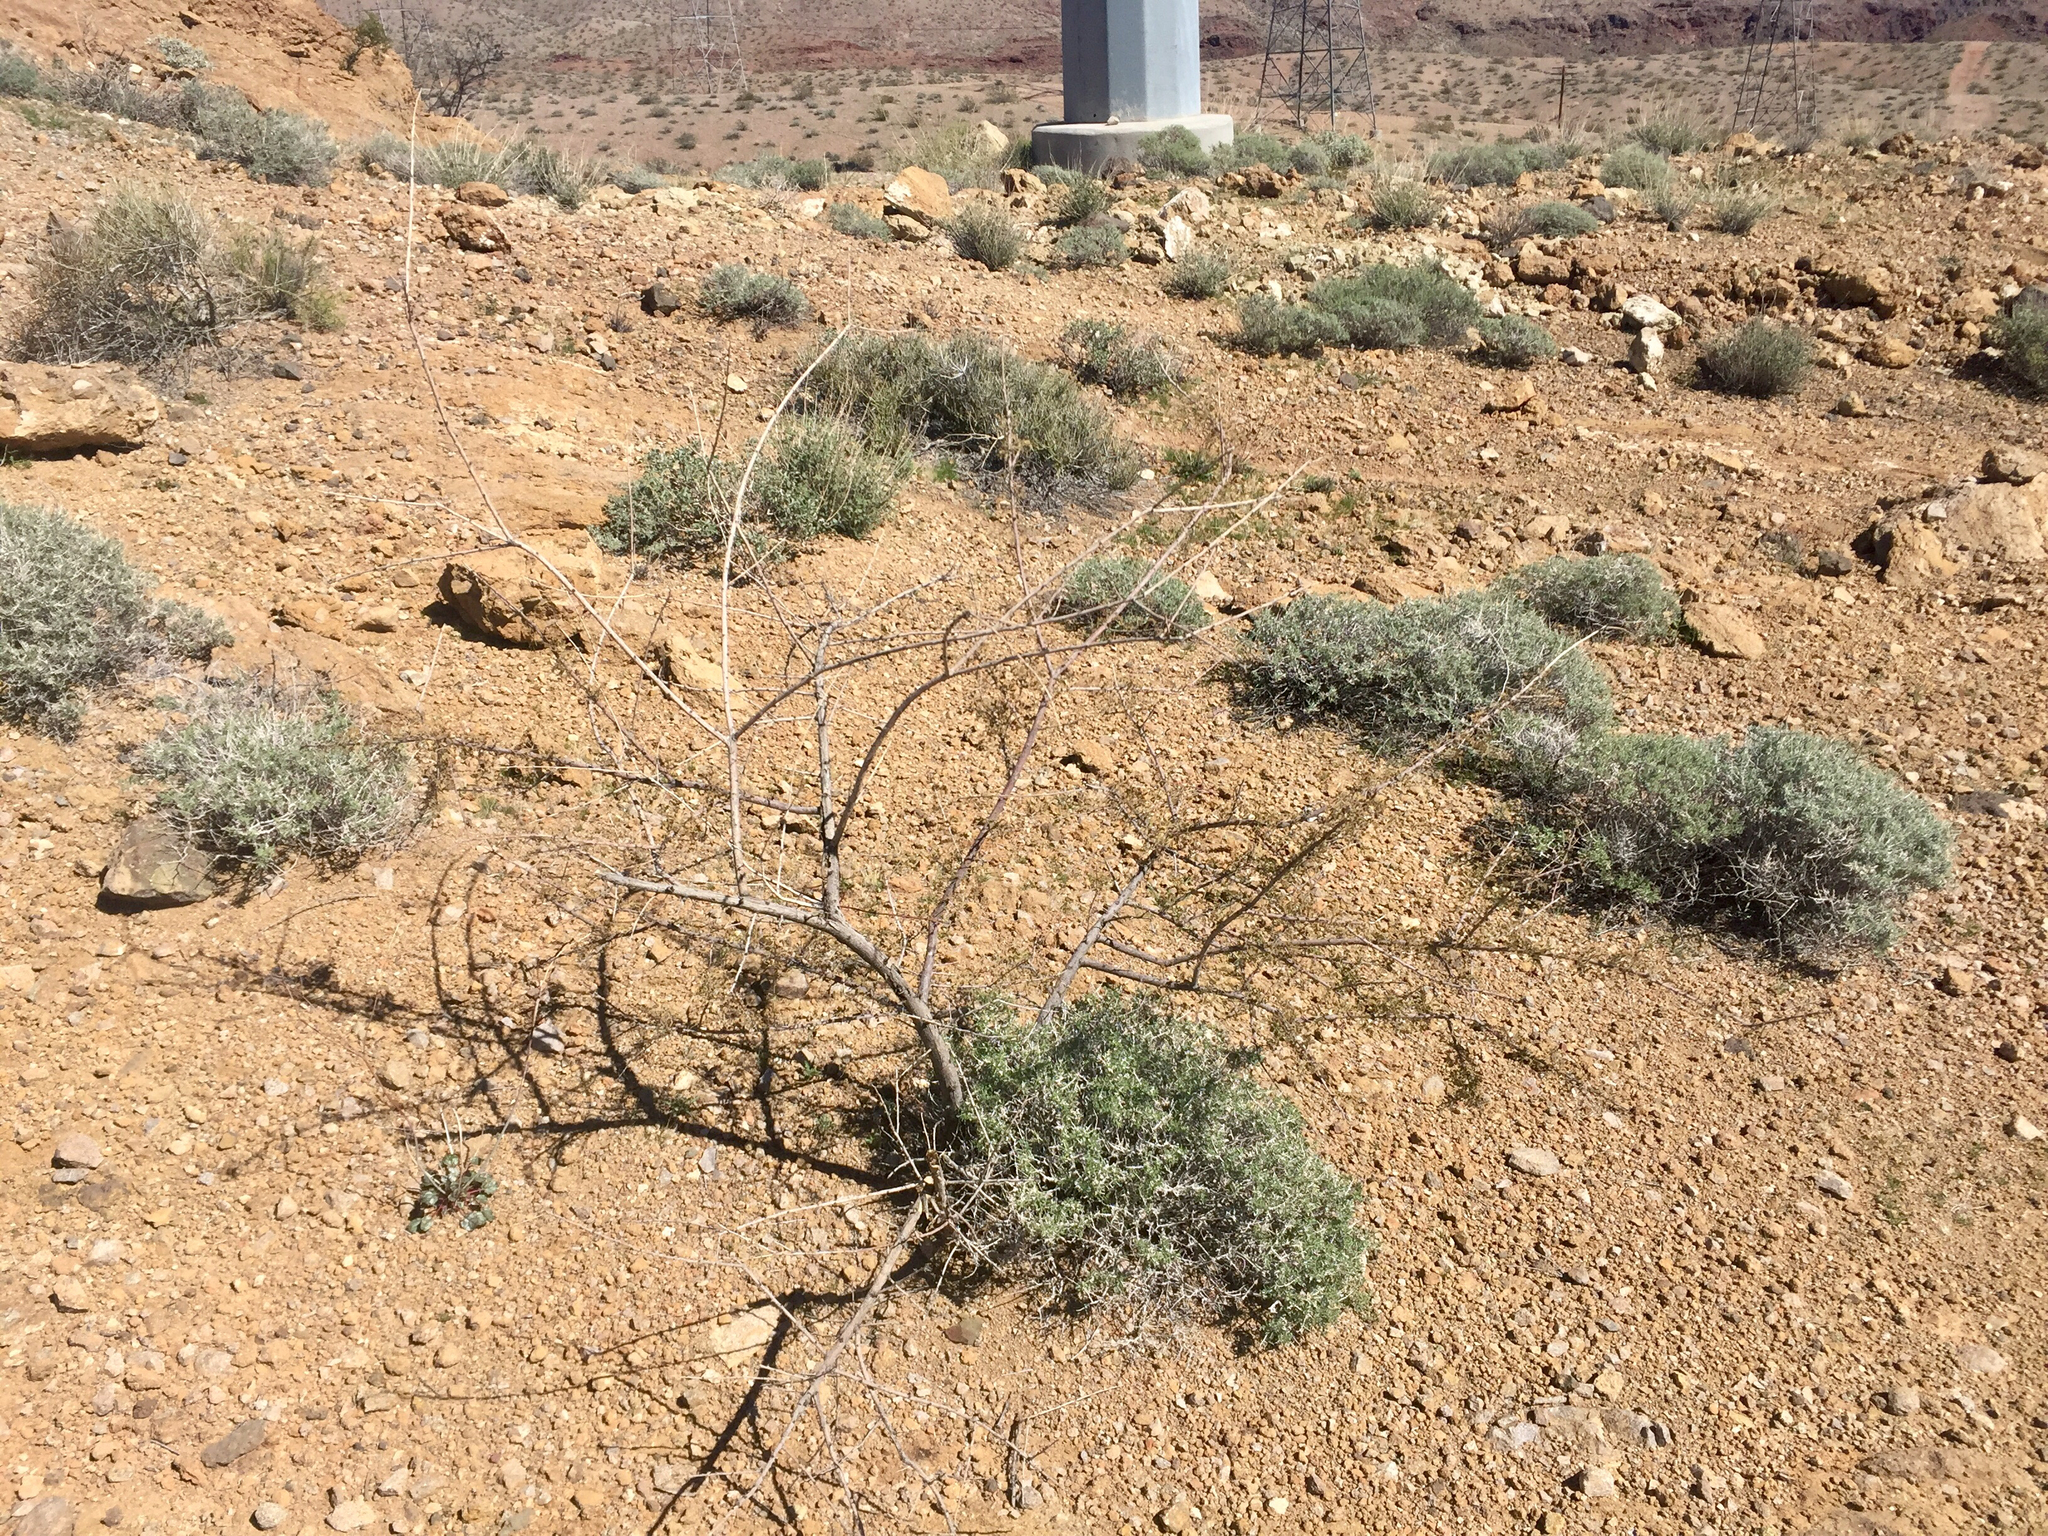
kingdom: Plantae
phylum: Tracheophyta
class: Magnoliopsida
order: Fabales
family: Fabaceae
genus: Senegalia
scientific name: Senegalia greggii
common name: Texas-mimosa
